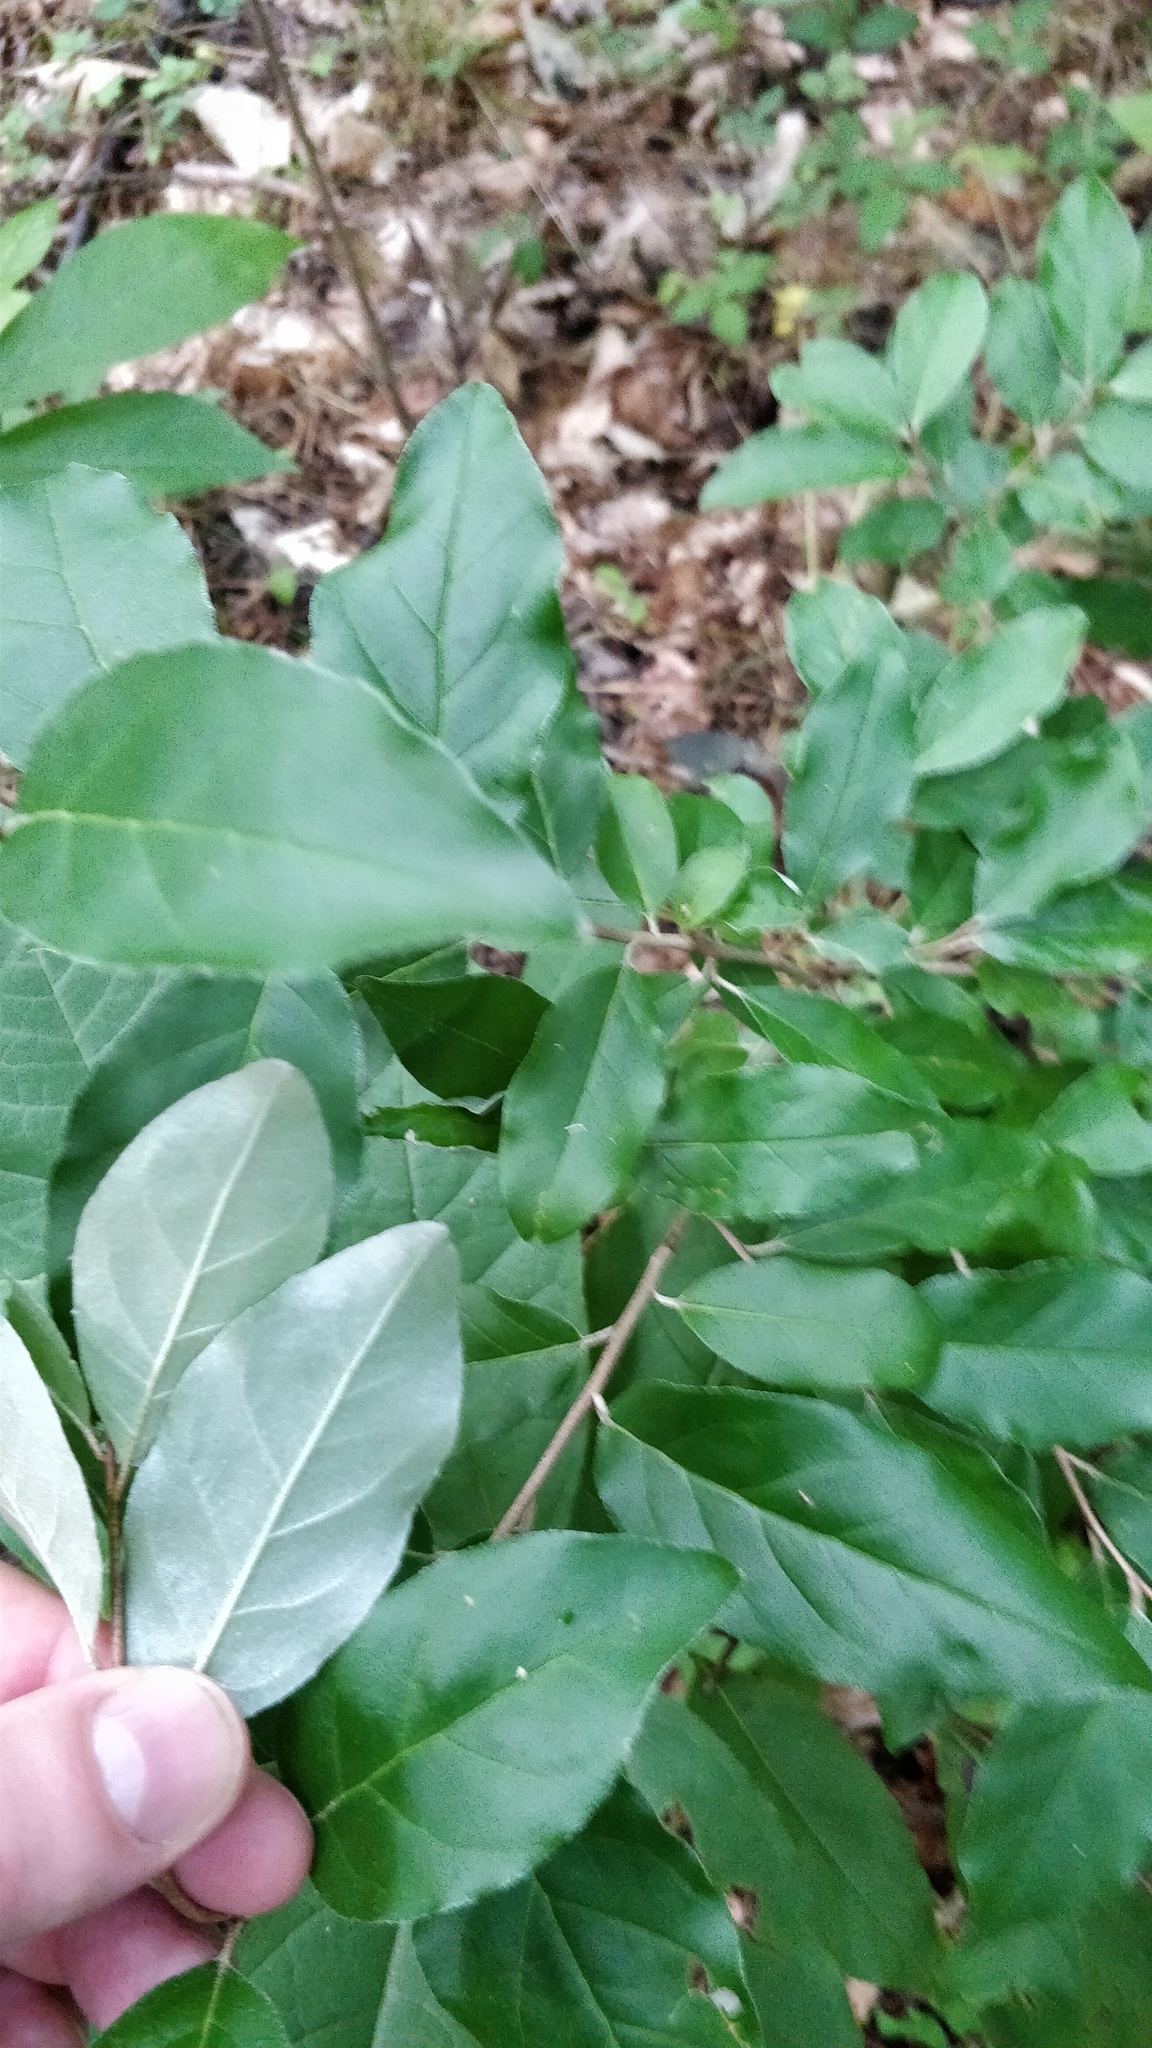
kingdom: Plantae
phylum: Tracheophyta
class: Magnoliopsida
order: Rosales
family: Elaeagnaceae
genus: Elaeagnus
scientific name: Elaeagnus umbellata
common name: Autumn olive
